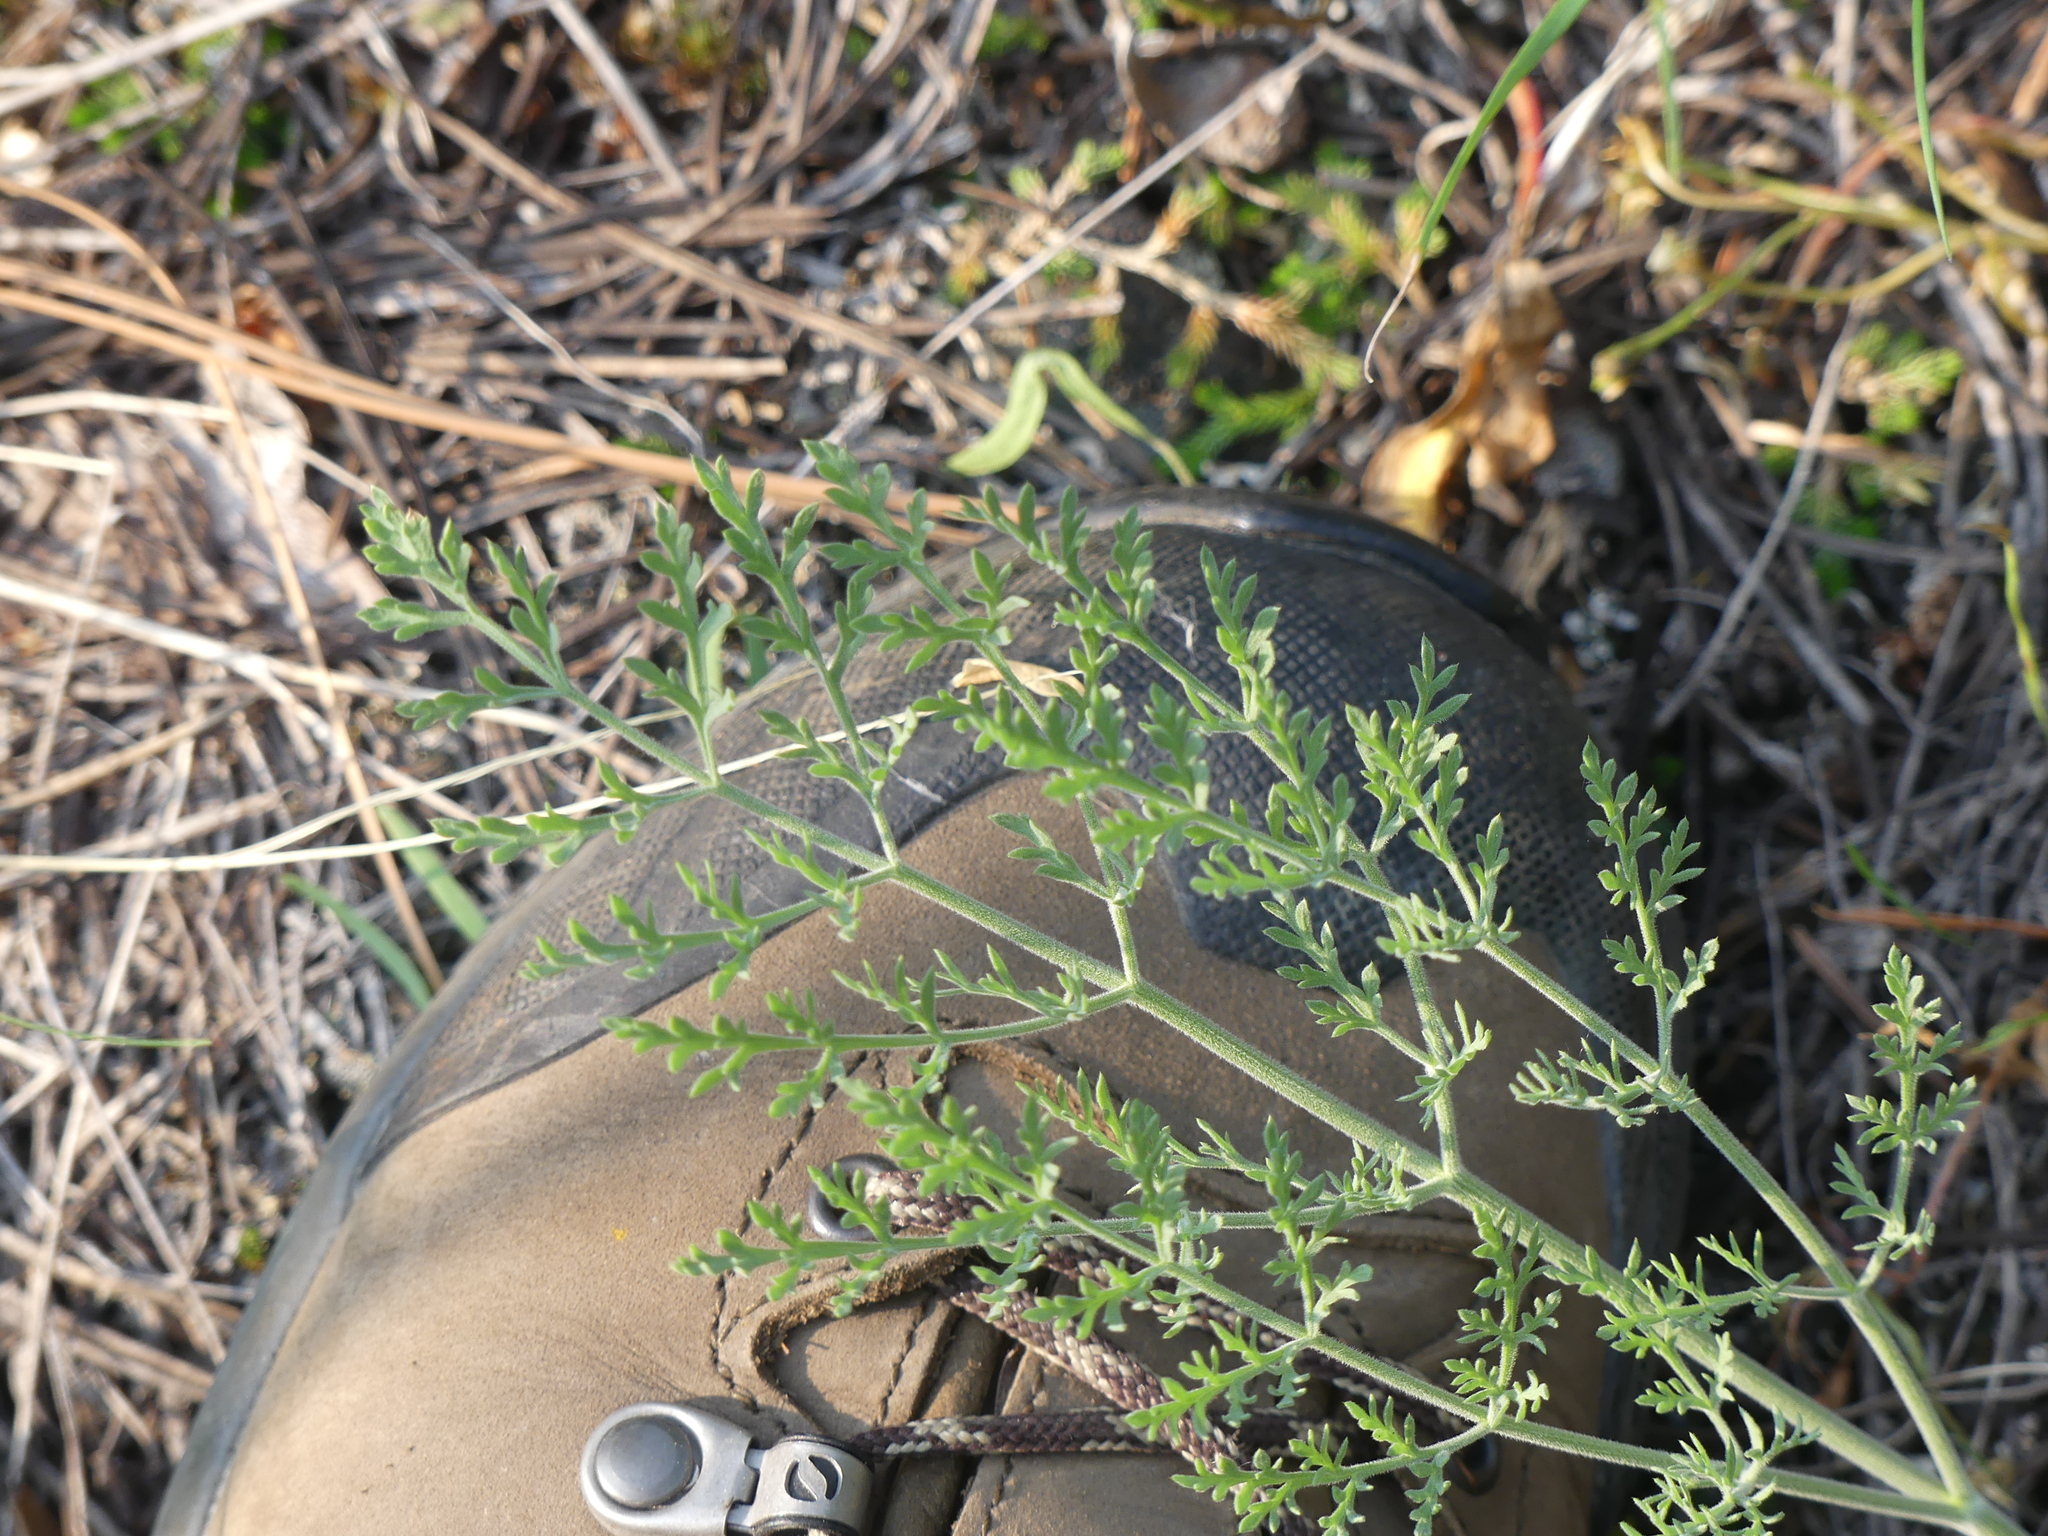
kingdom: Plantae
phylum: Tracheophyta
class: Magnoliopsida
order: Apiales
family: Apiaceae
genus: Lomatium
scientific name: Lomatium macrocarpum
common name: Big-seed biscuitroot
